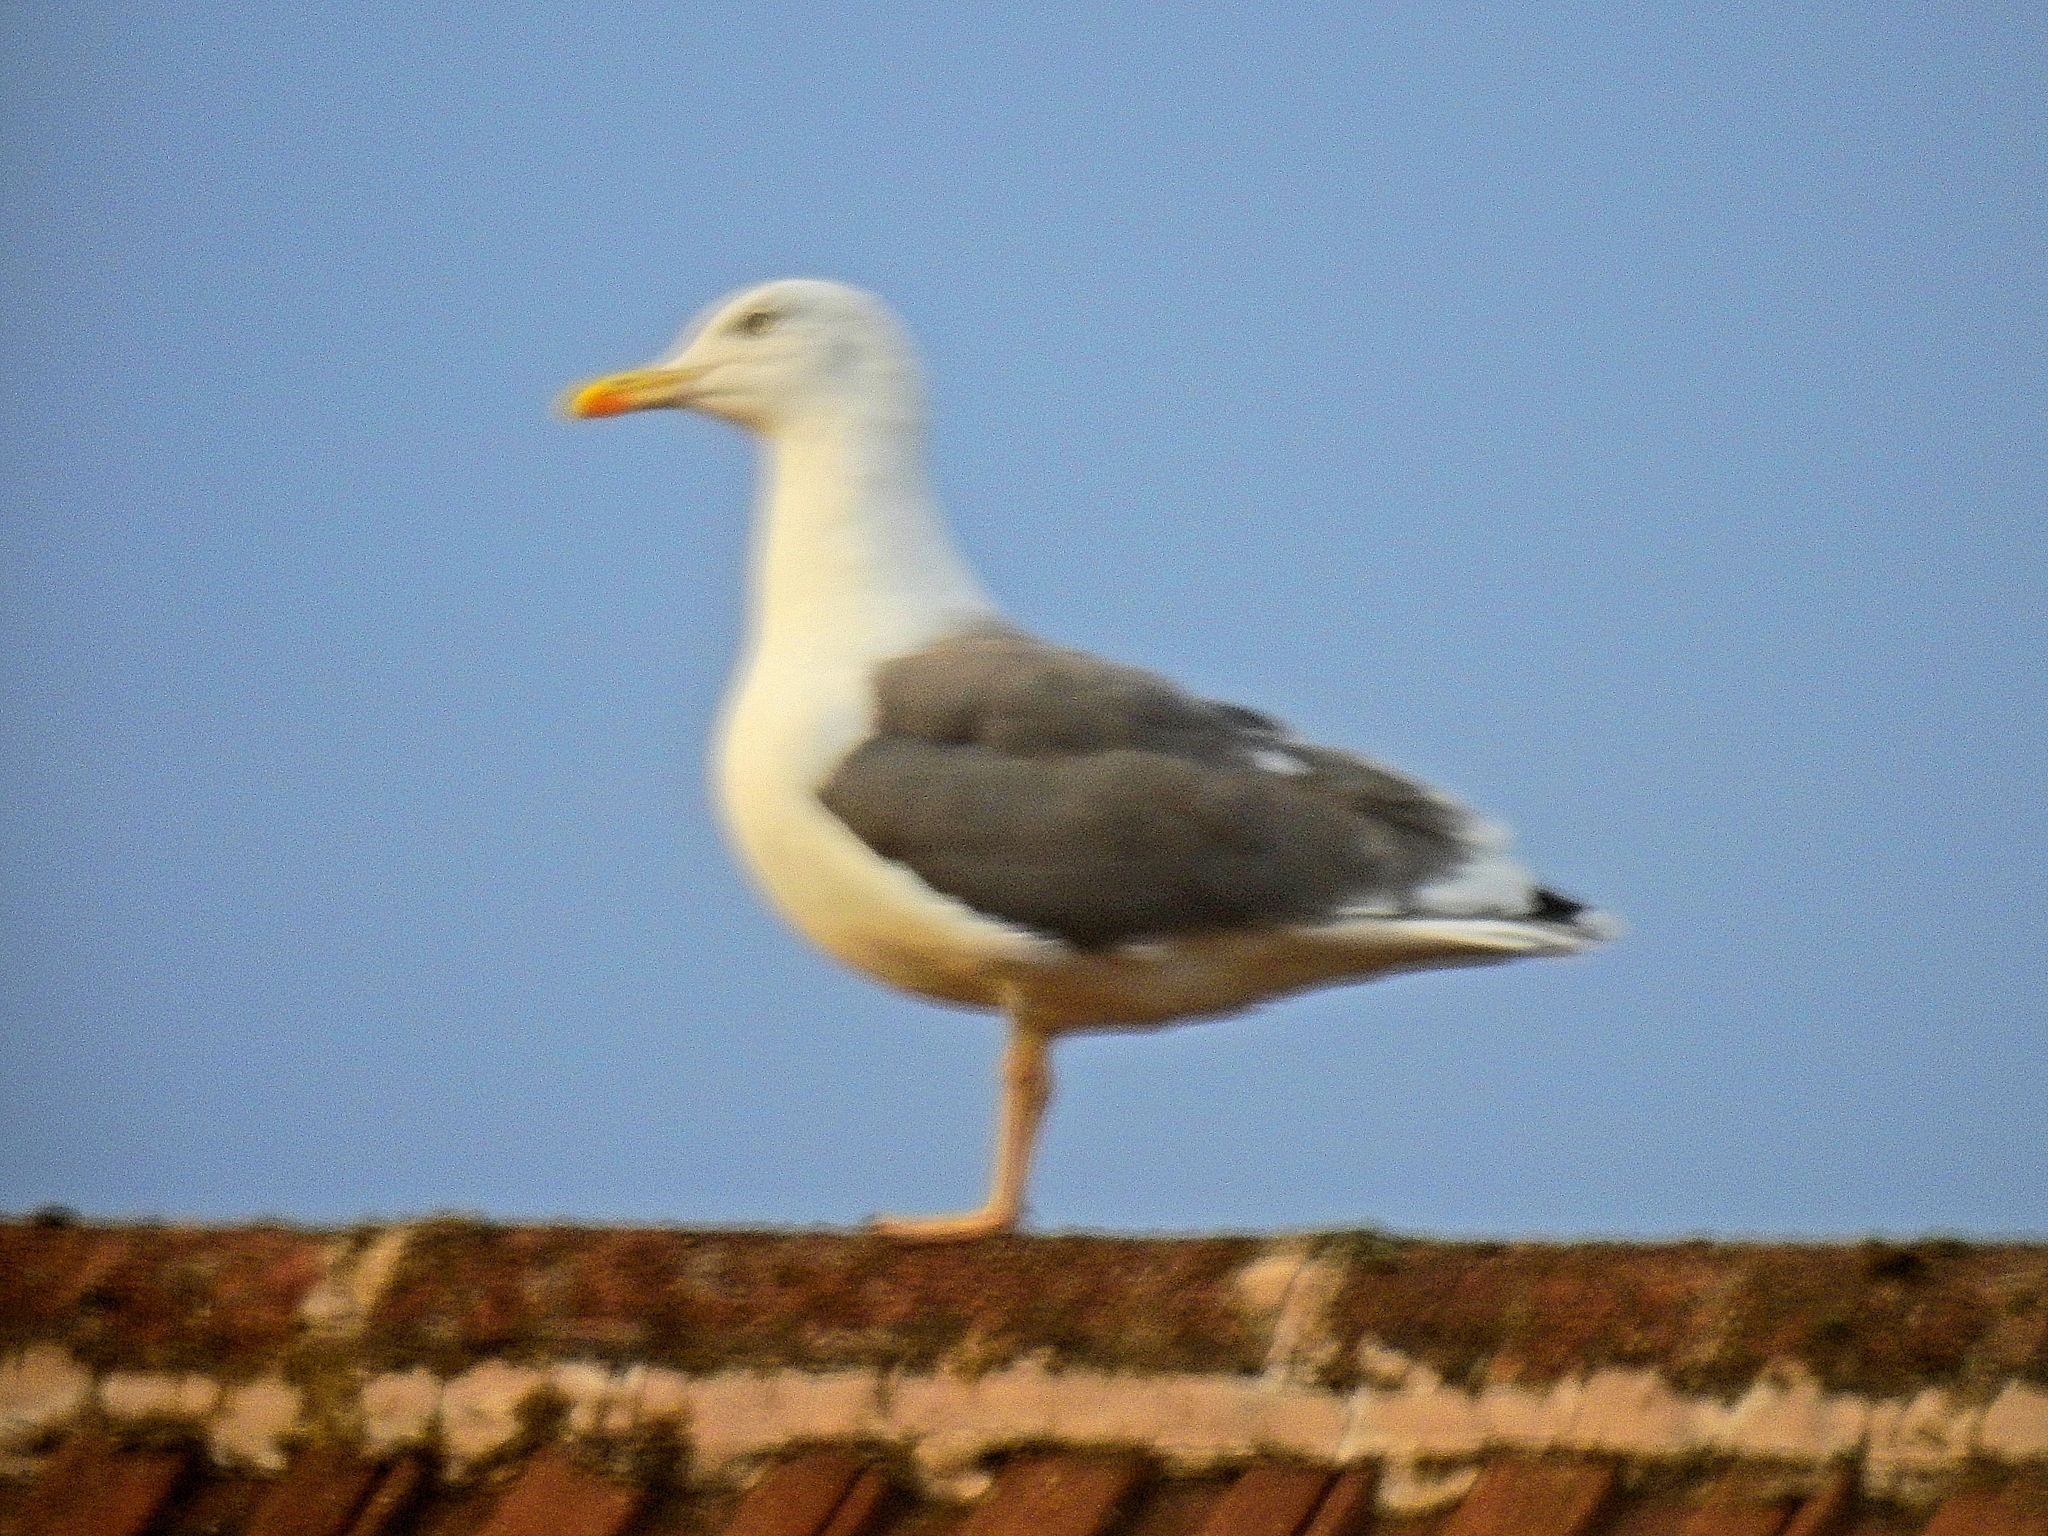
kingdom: Animalia
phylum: Chordata
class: Aves
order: Charadriiformes
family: Laridae
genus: Larus
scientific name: Larus fuscus
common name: Lesser black-backed gull
